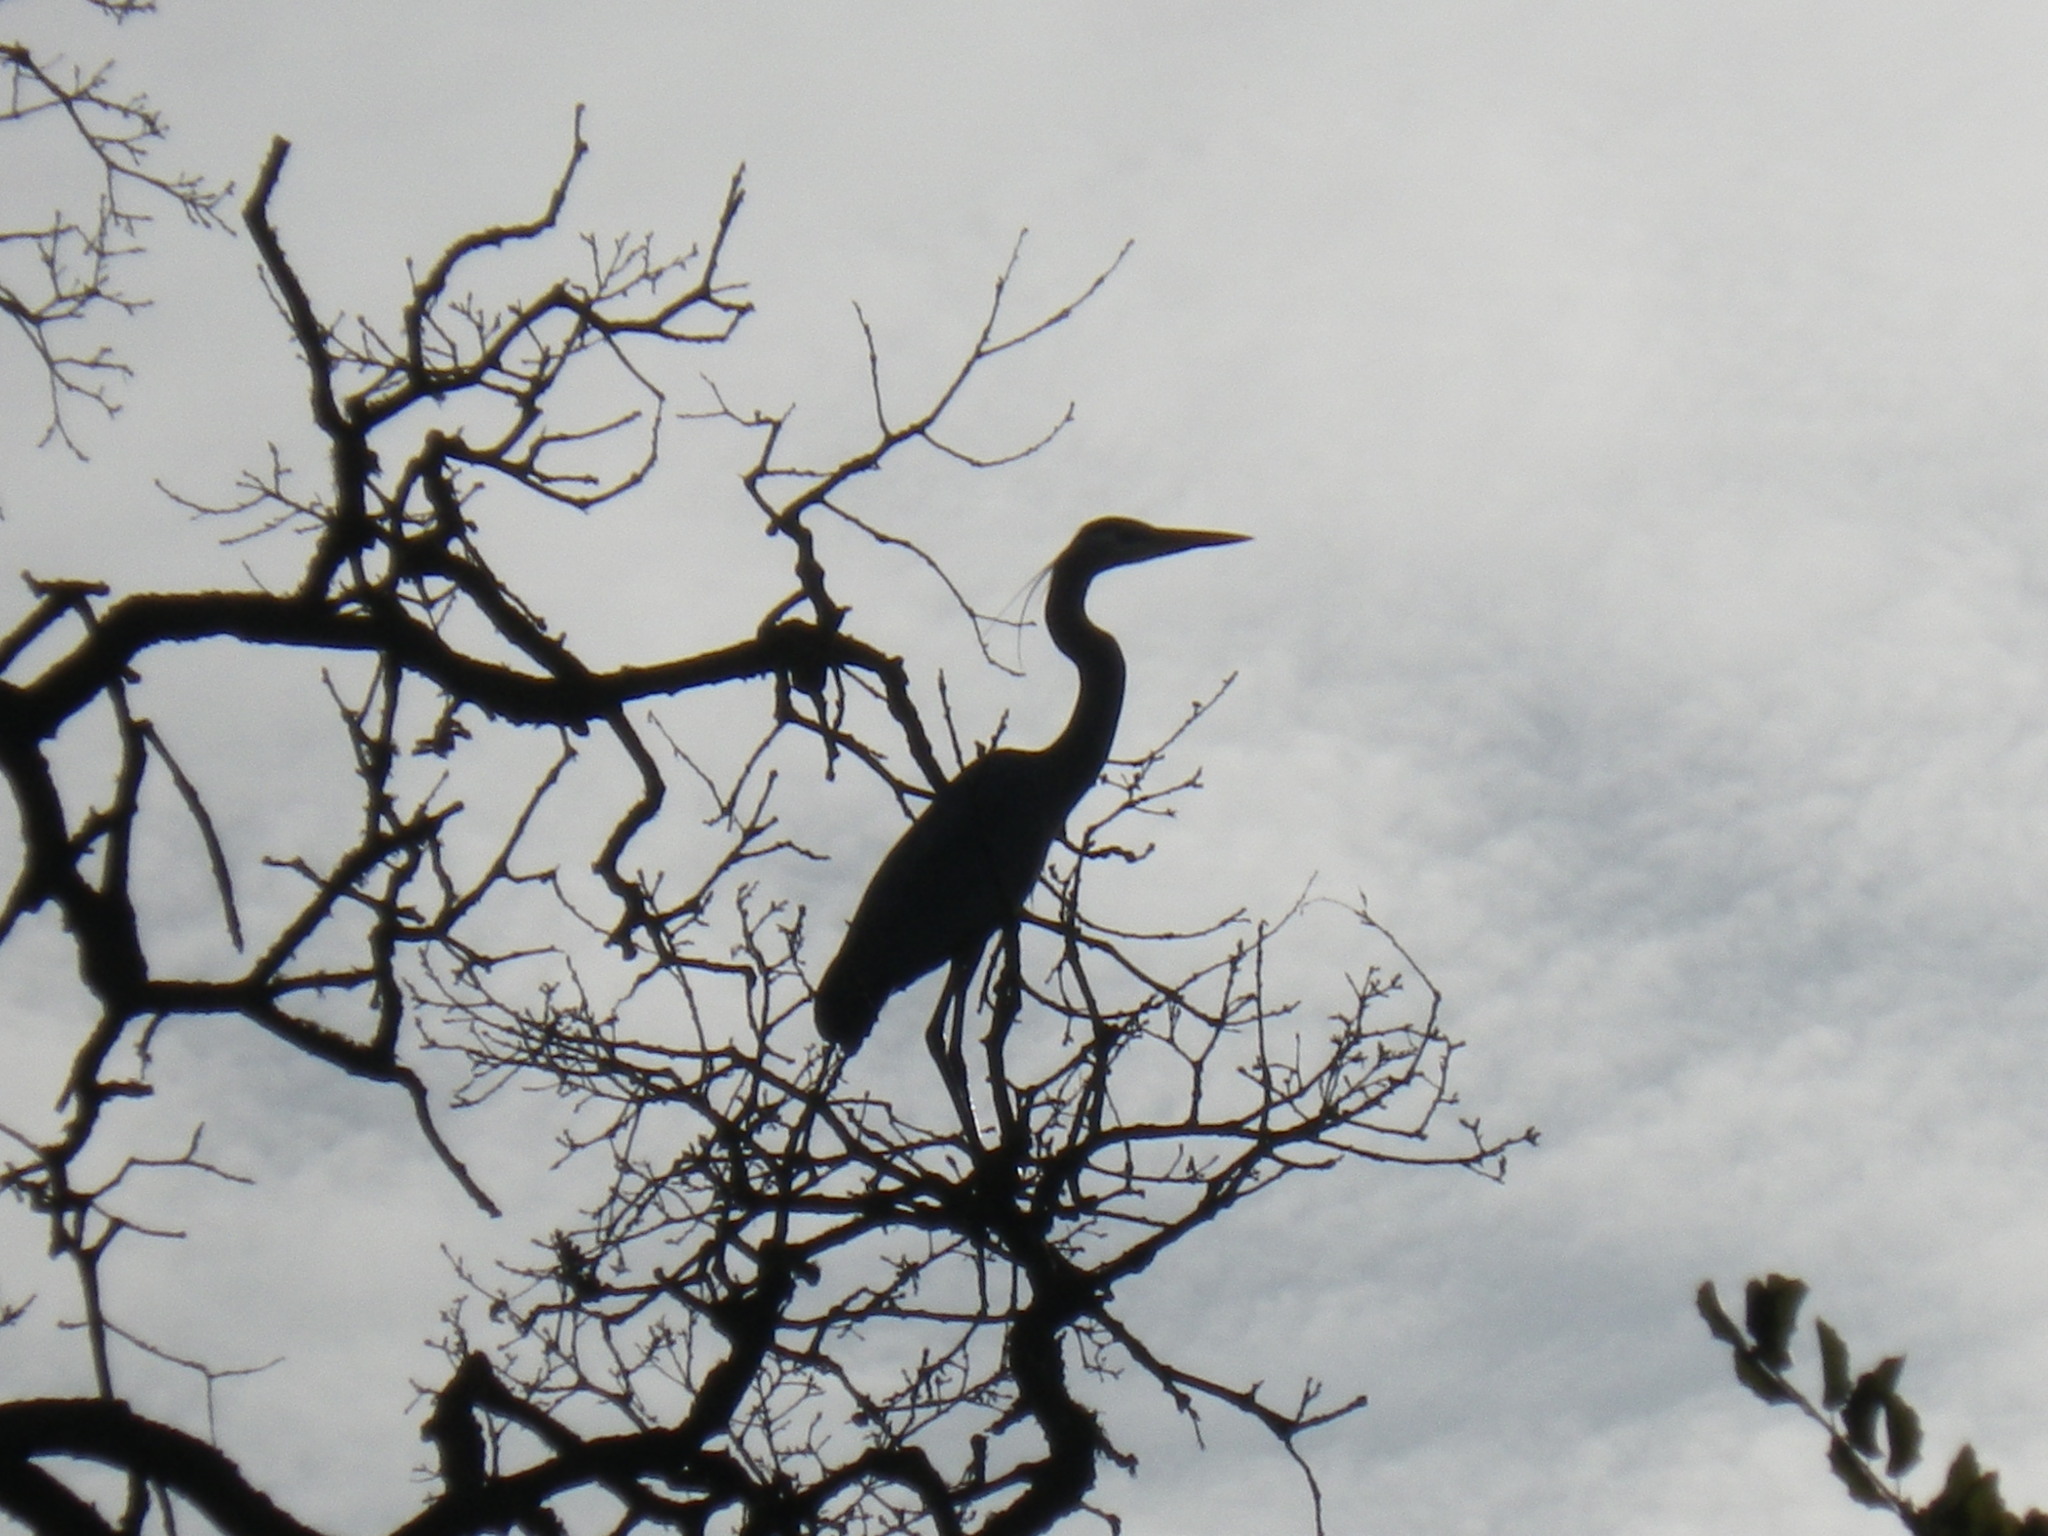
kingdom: Animalia
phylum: Chordata
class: Aves
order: Pelecaniformes
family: Ardeidae
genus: Ardea
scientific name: Ardea herodias
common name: Great blue heron
